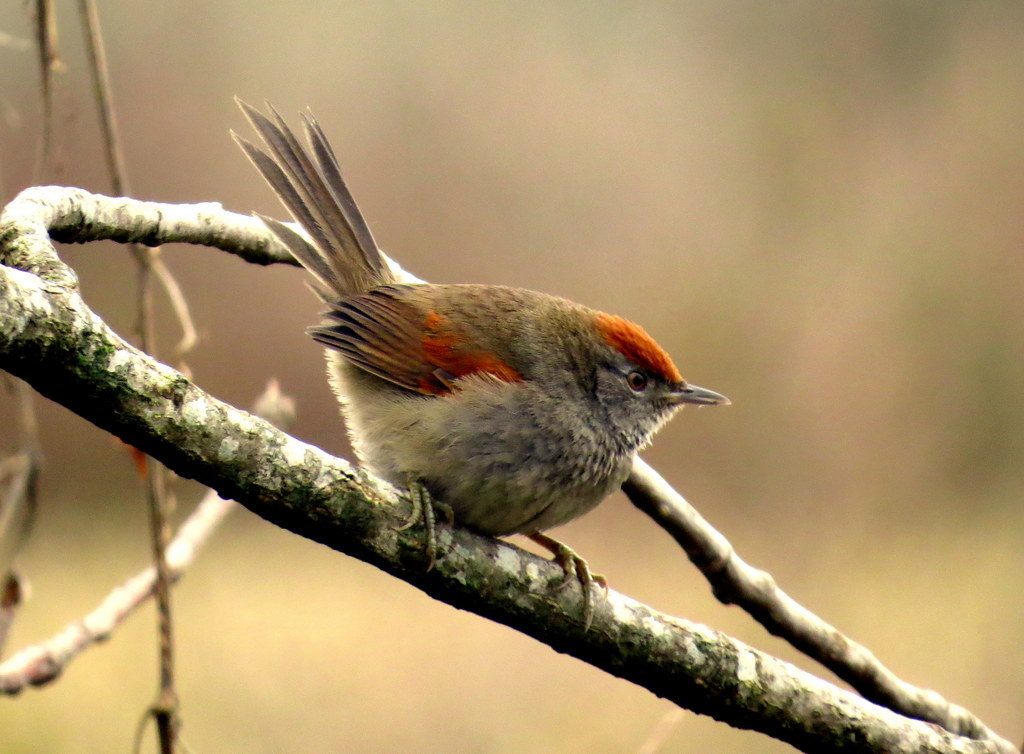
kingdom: Animalia
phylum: Chordata
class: Aves
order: Passeriformes
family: Furnariidae
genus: Synallaxis
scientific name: Synallaxis spixi
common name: Spix's spinetail
